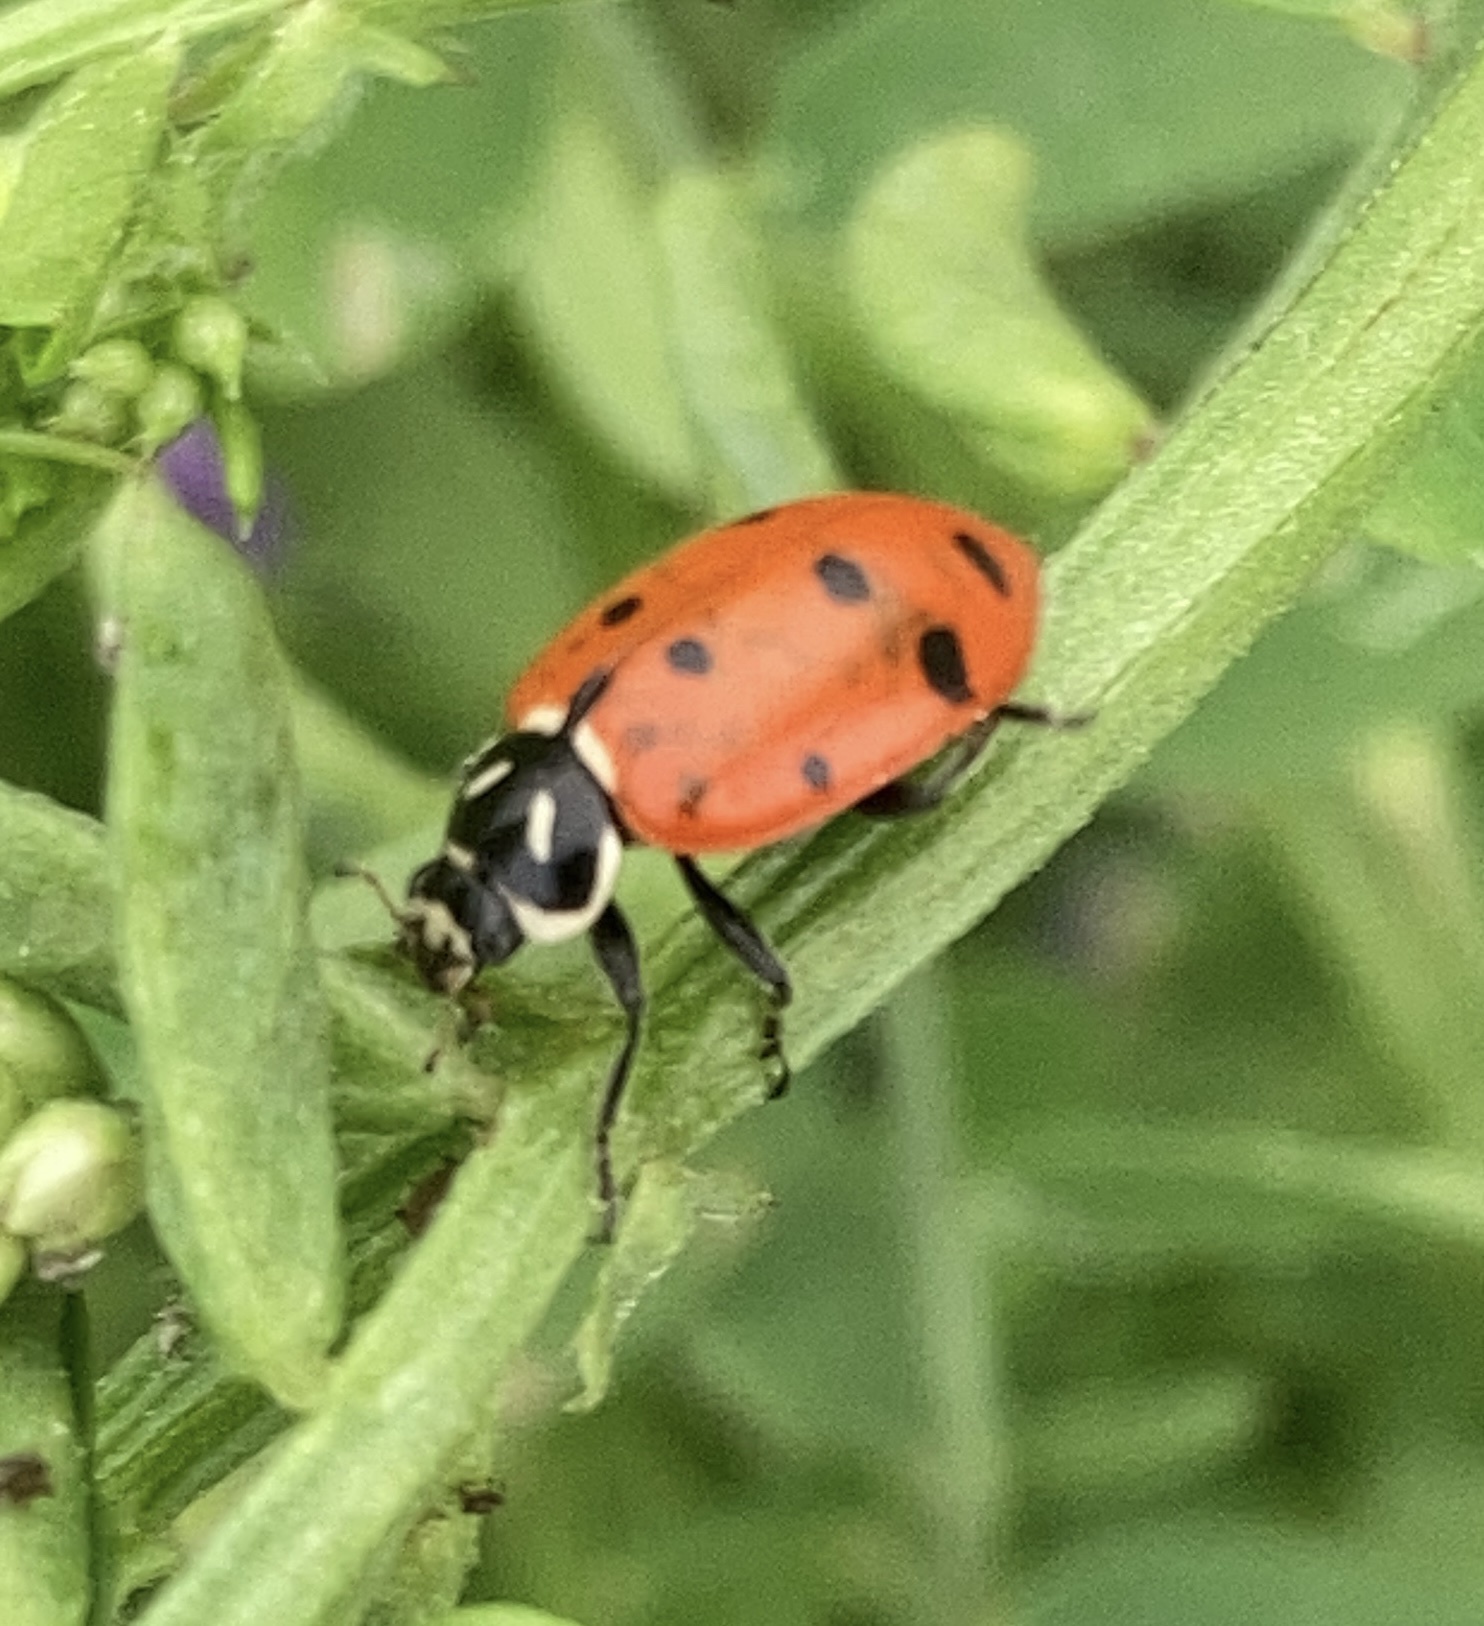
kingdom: Animalia
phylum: Arthropoda
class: Insecta
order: Coleoptera
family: Coccinellidae
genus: Hippodamia
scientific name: Hippodamia convergens
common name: Convergent lady beetle
